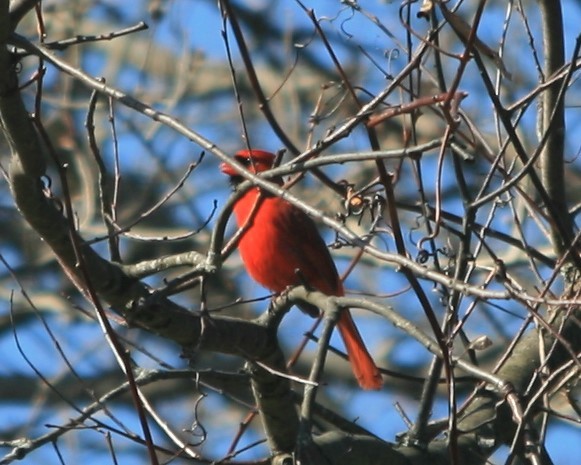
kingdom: Animalia
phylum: Chordata
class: Aves
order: Passeriformes
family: Cardinalidae
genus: Cardinalis
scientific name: Cardinalis cardinalis
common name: Northern cardinal
